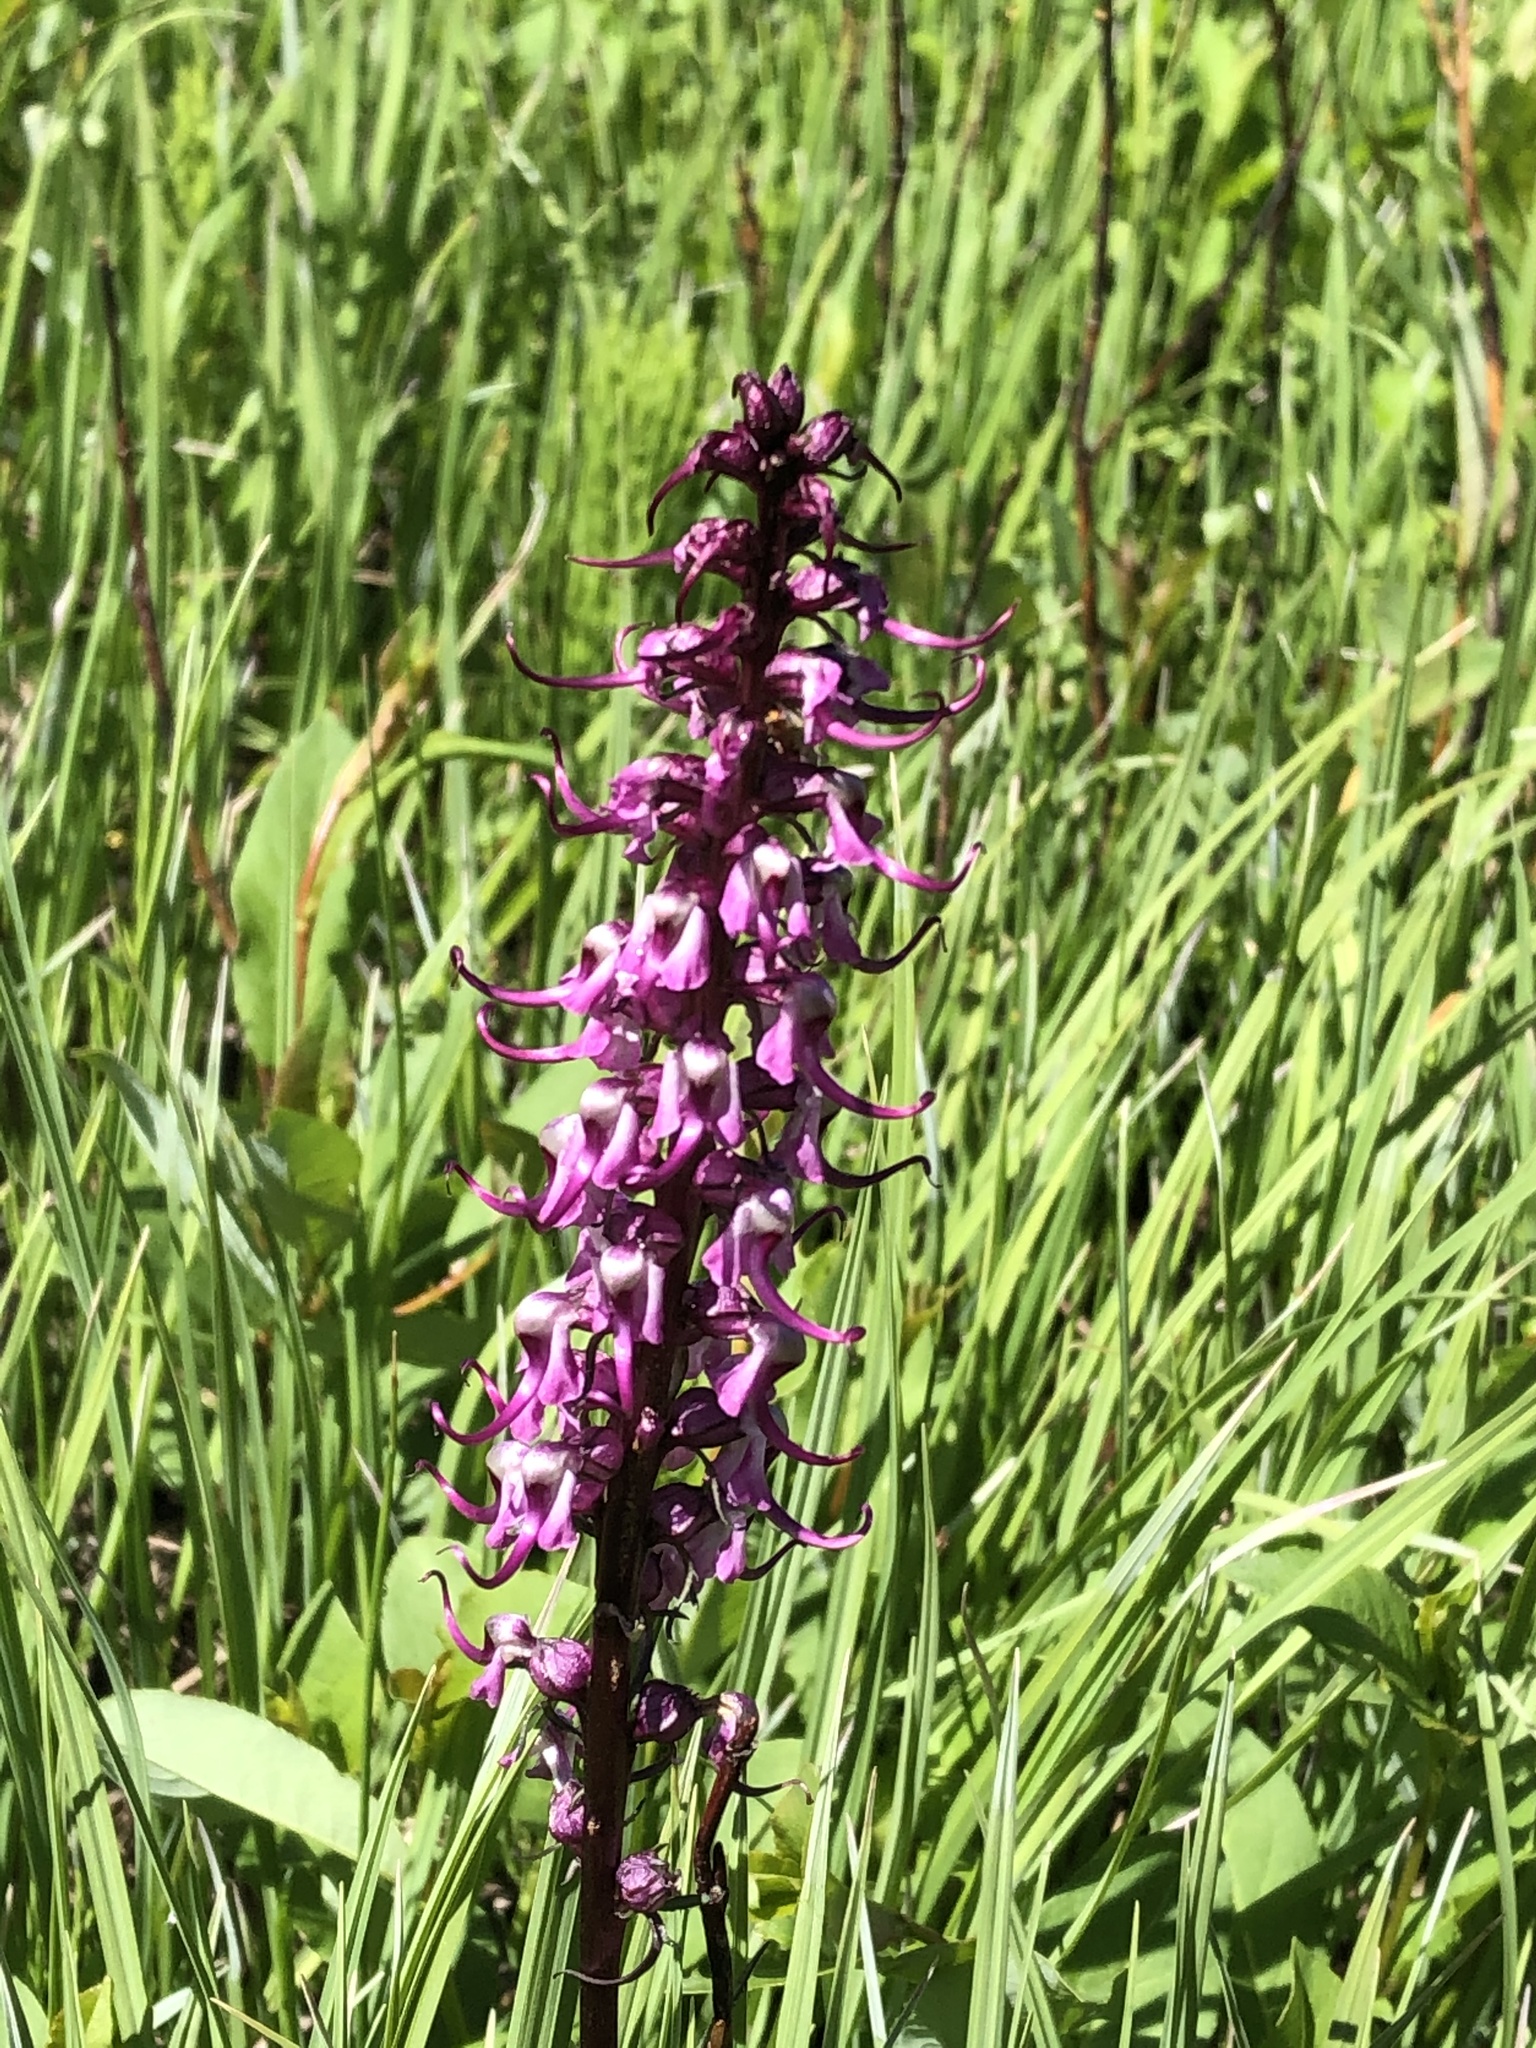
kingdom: Plantae
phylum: Tracheophyta
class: Magnoliopsida
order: Lamiales
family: Orobanchaceae
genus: Pedicularis
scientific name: Pedicularis groenlandica
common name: Elephant's-head
